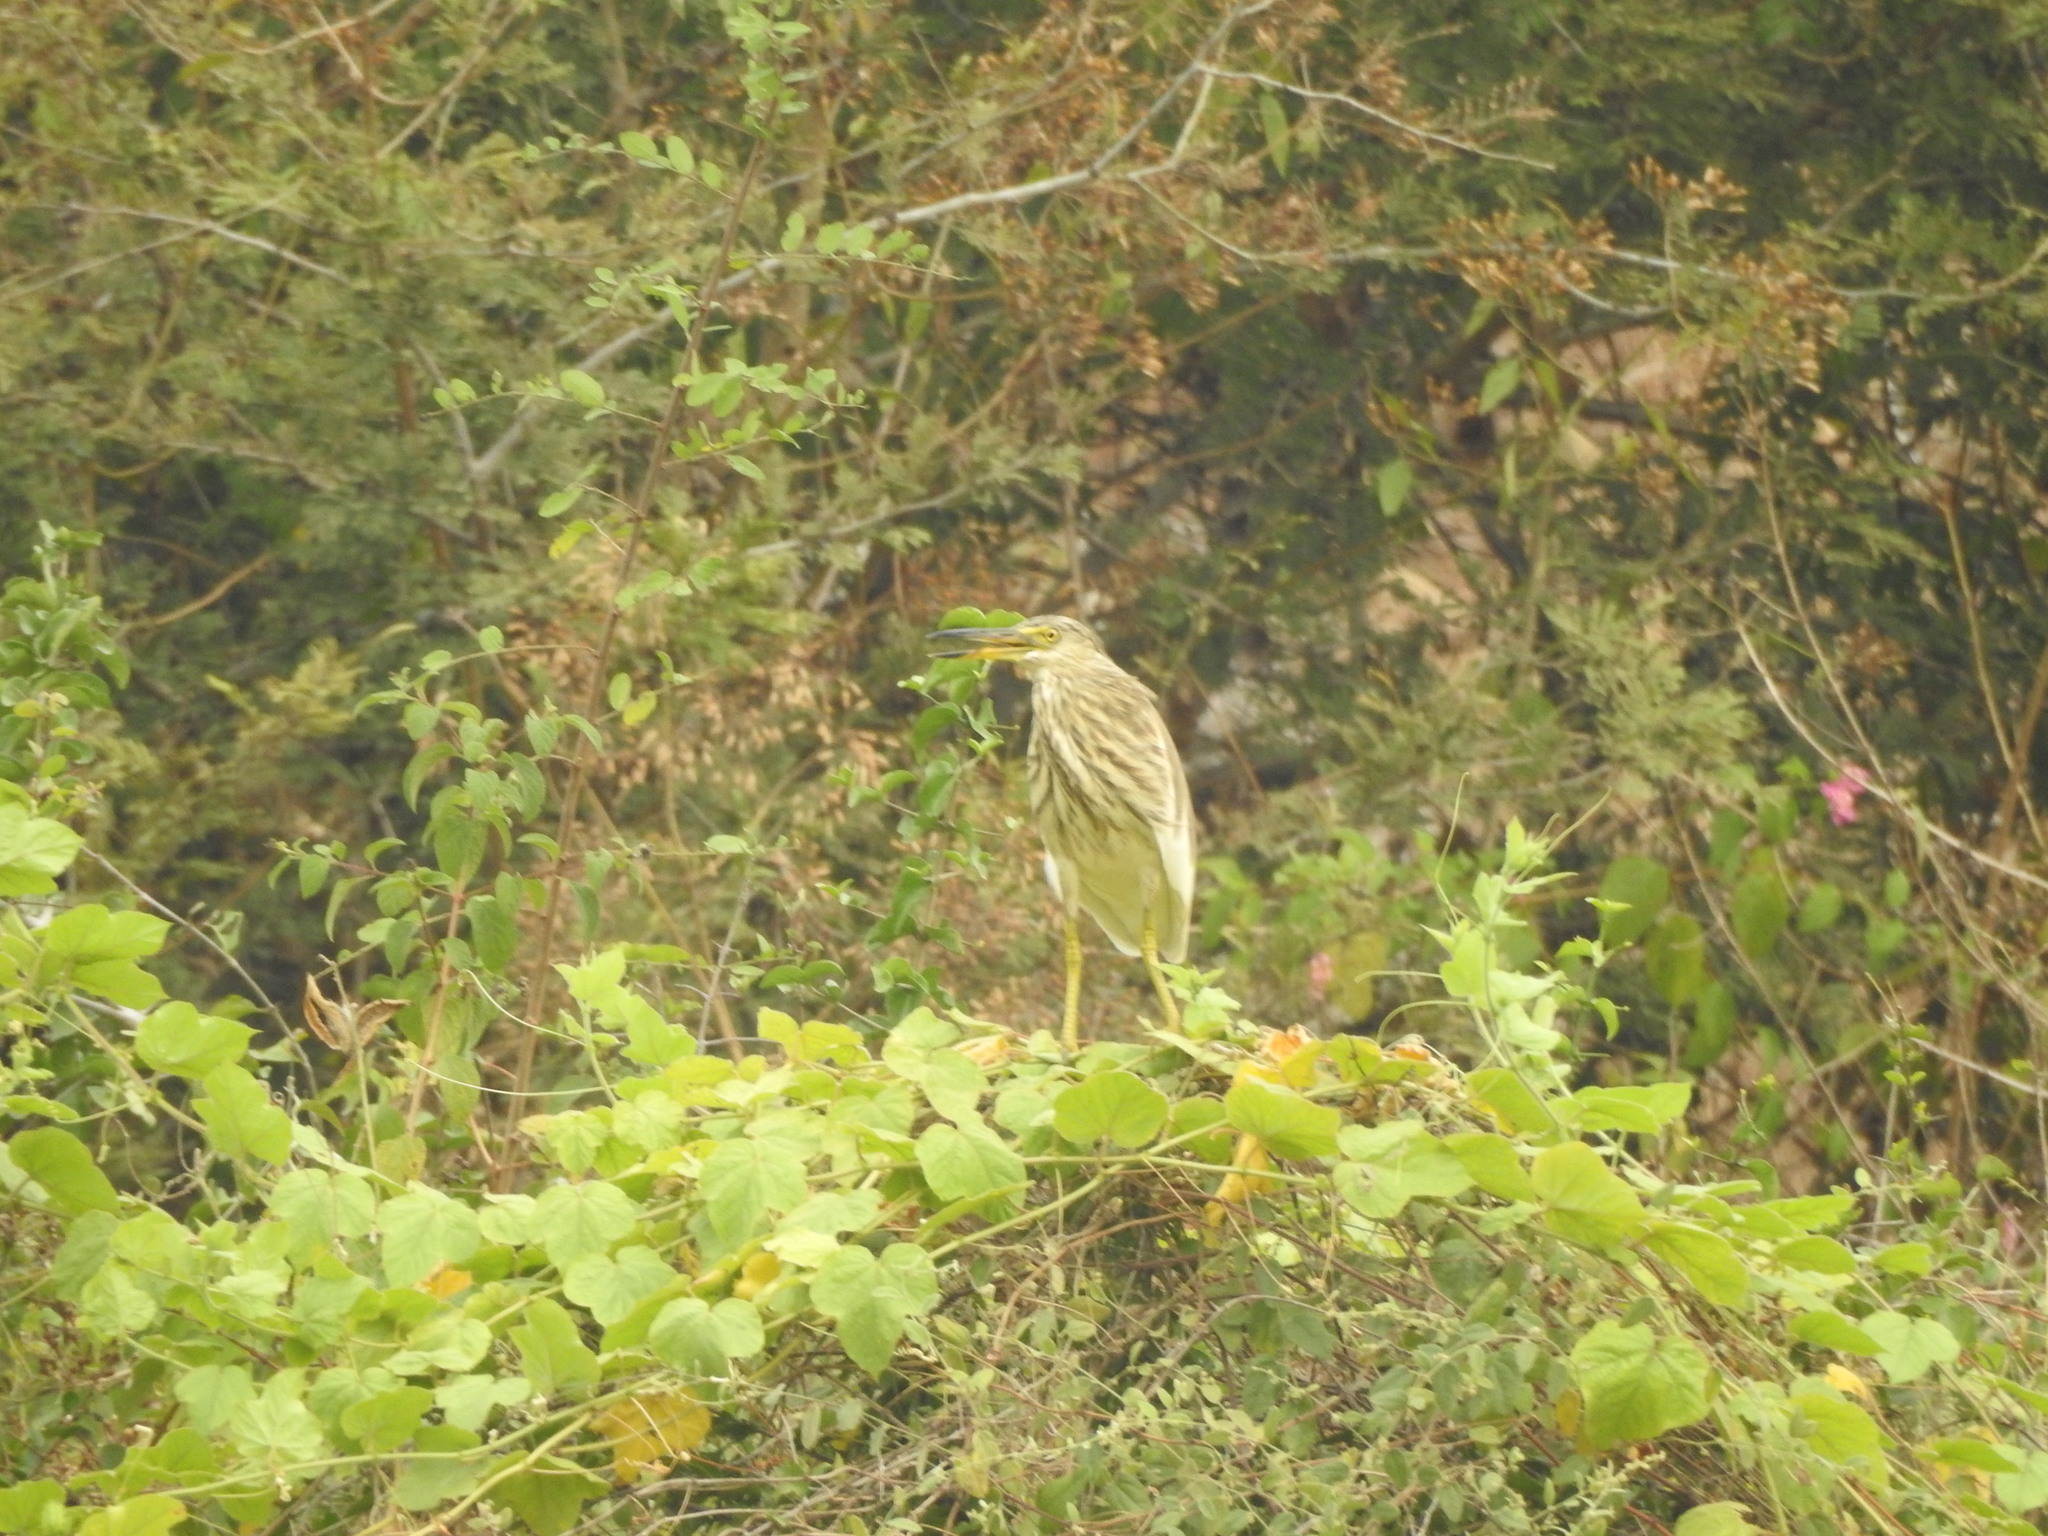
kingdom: Animalia
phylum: Chordata
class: Aves
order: Pelecaniformes
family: Ardeidae
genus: Ardeola
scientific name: Ardeola grayii
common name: Indian pond heron
